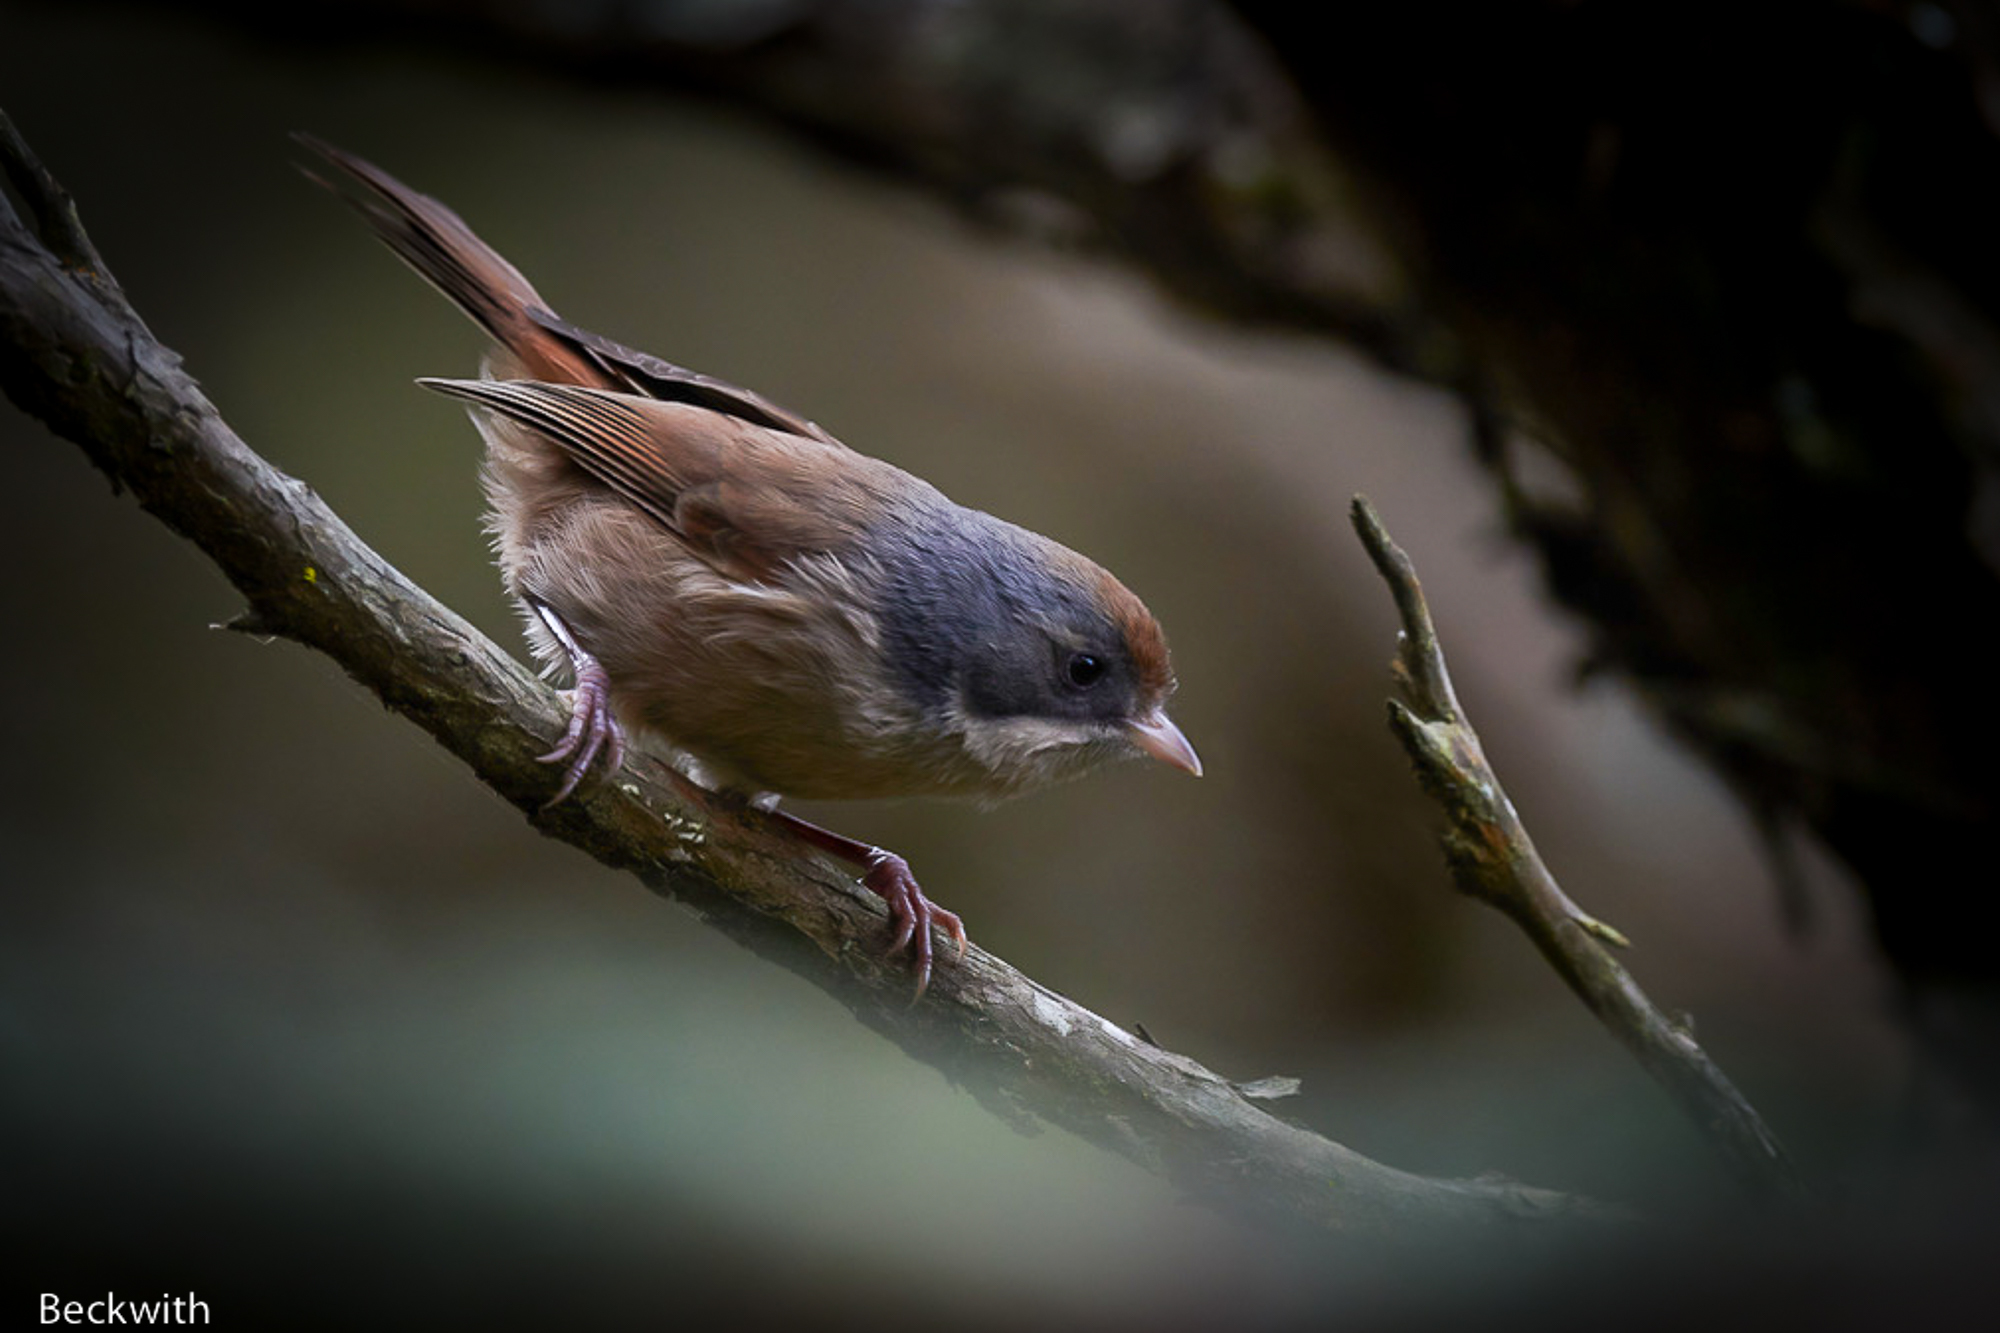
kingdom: Animalia
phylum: Chordata
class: Aves
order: Passeriformes
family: Acanthizidae
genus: Finschia
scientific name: Finschia novaeseelandiae
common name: Pipipi
